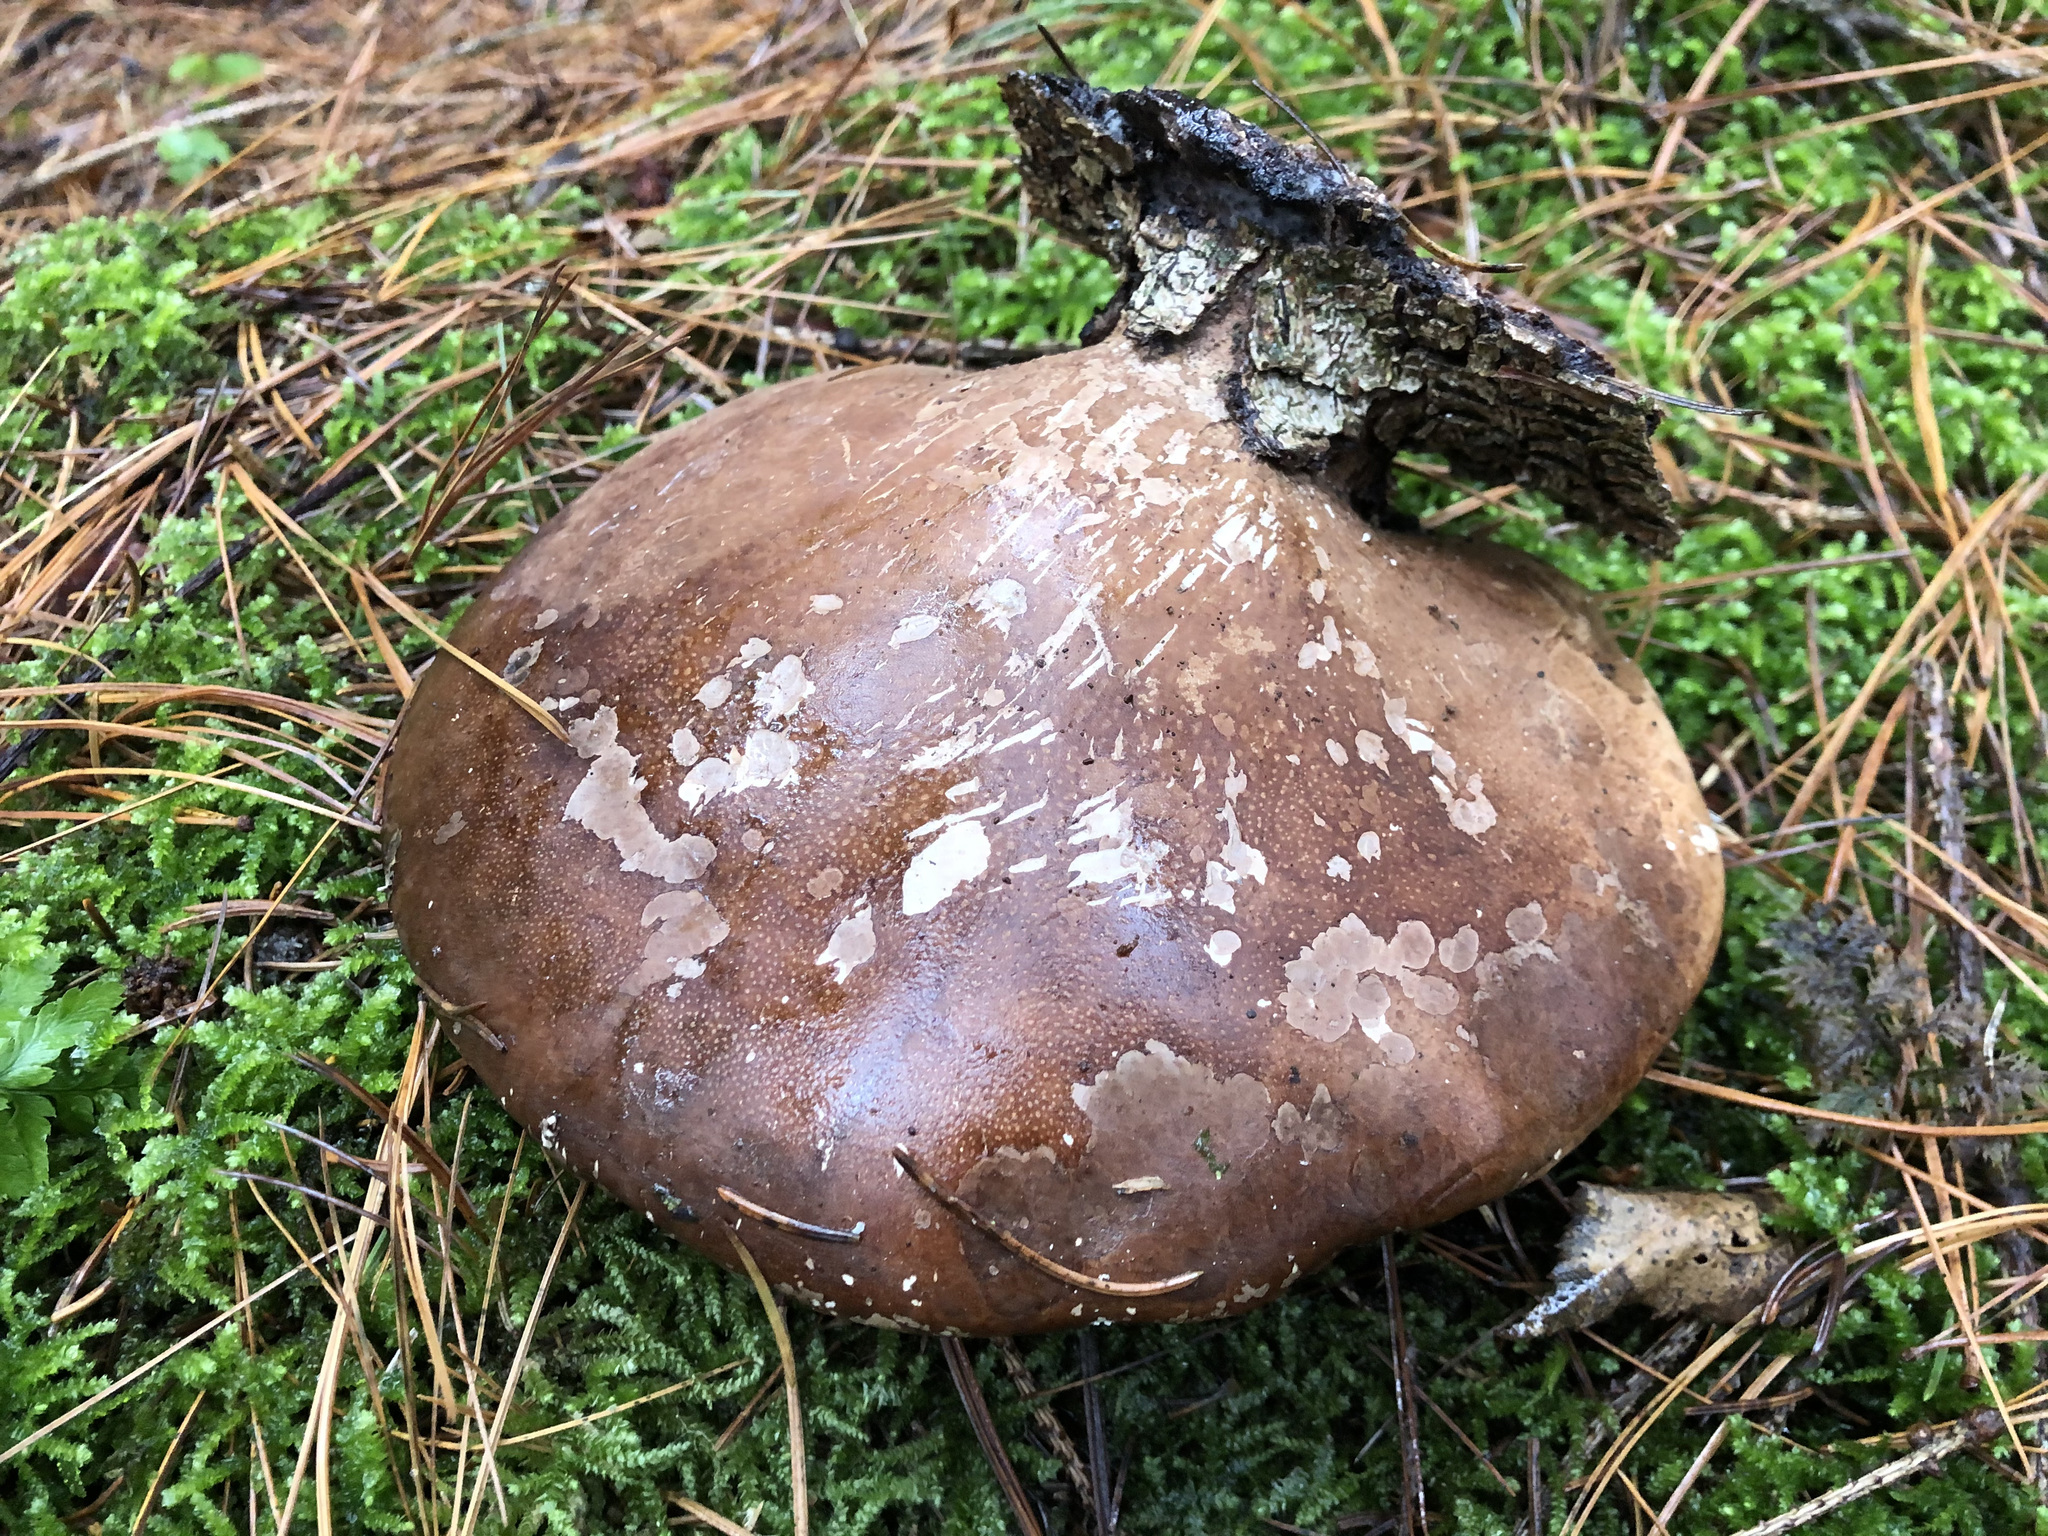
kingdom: Fungi
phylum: Basidiomycota
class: Agaricomycetes
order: Polyporales
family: Fomitopsidaceae
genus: Fomitopsis
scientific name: Fomitopsis betulina
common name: Birch polypore
